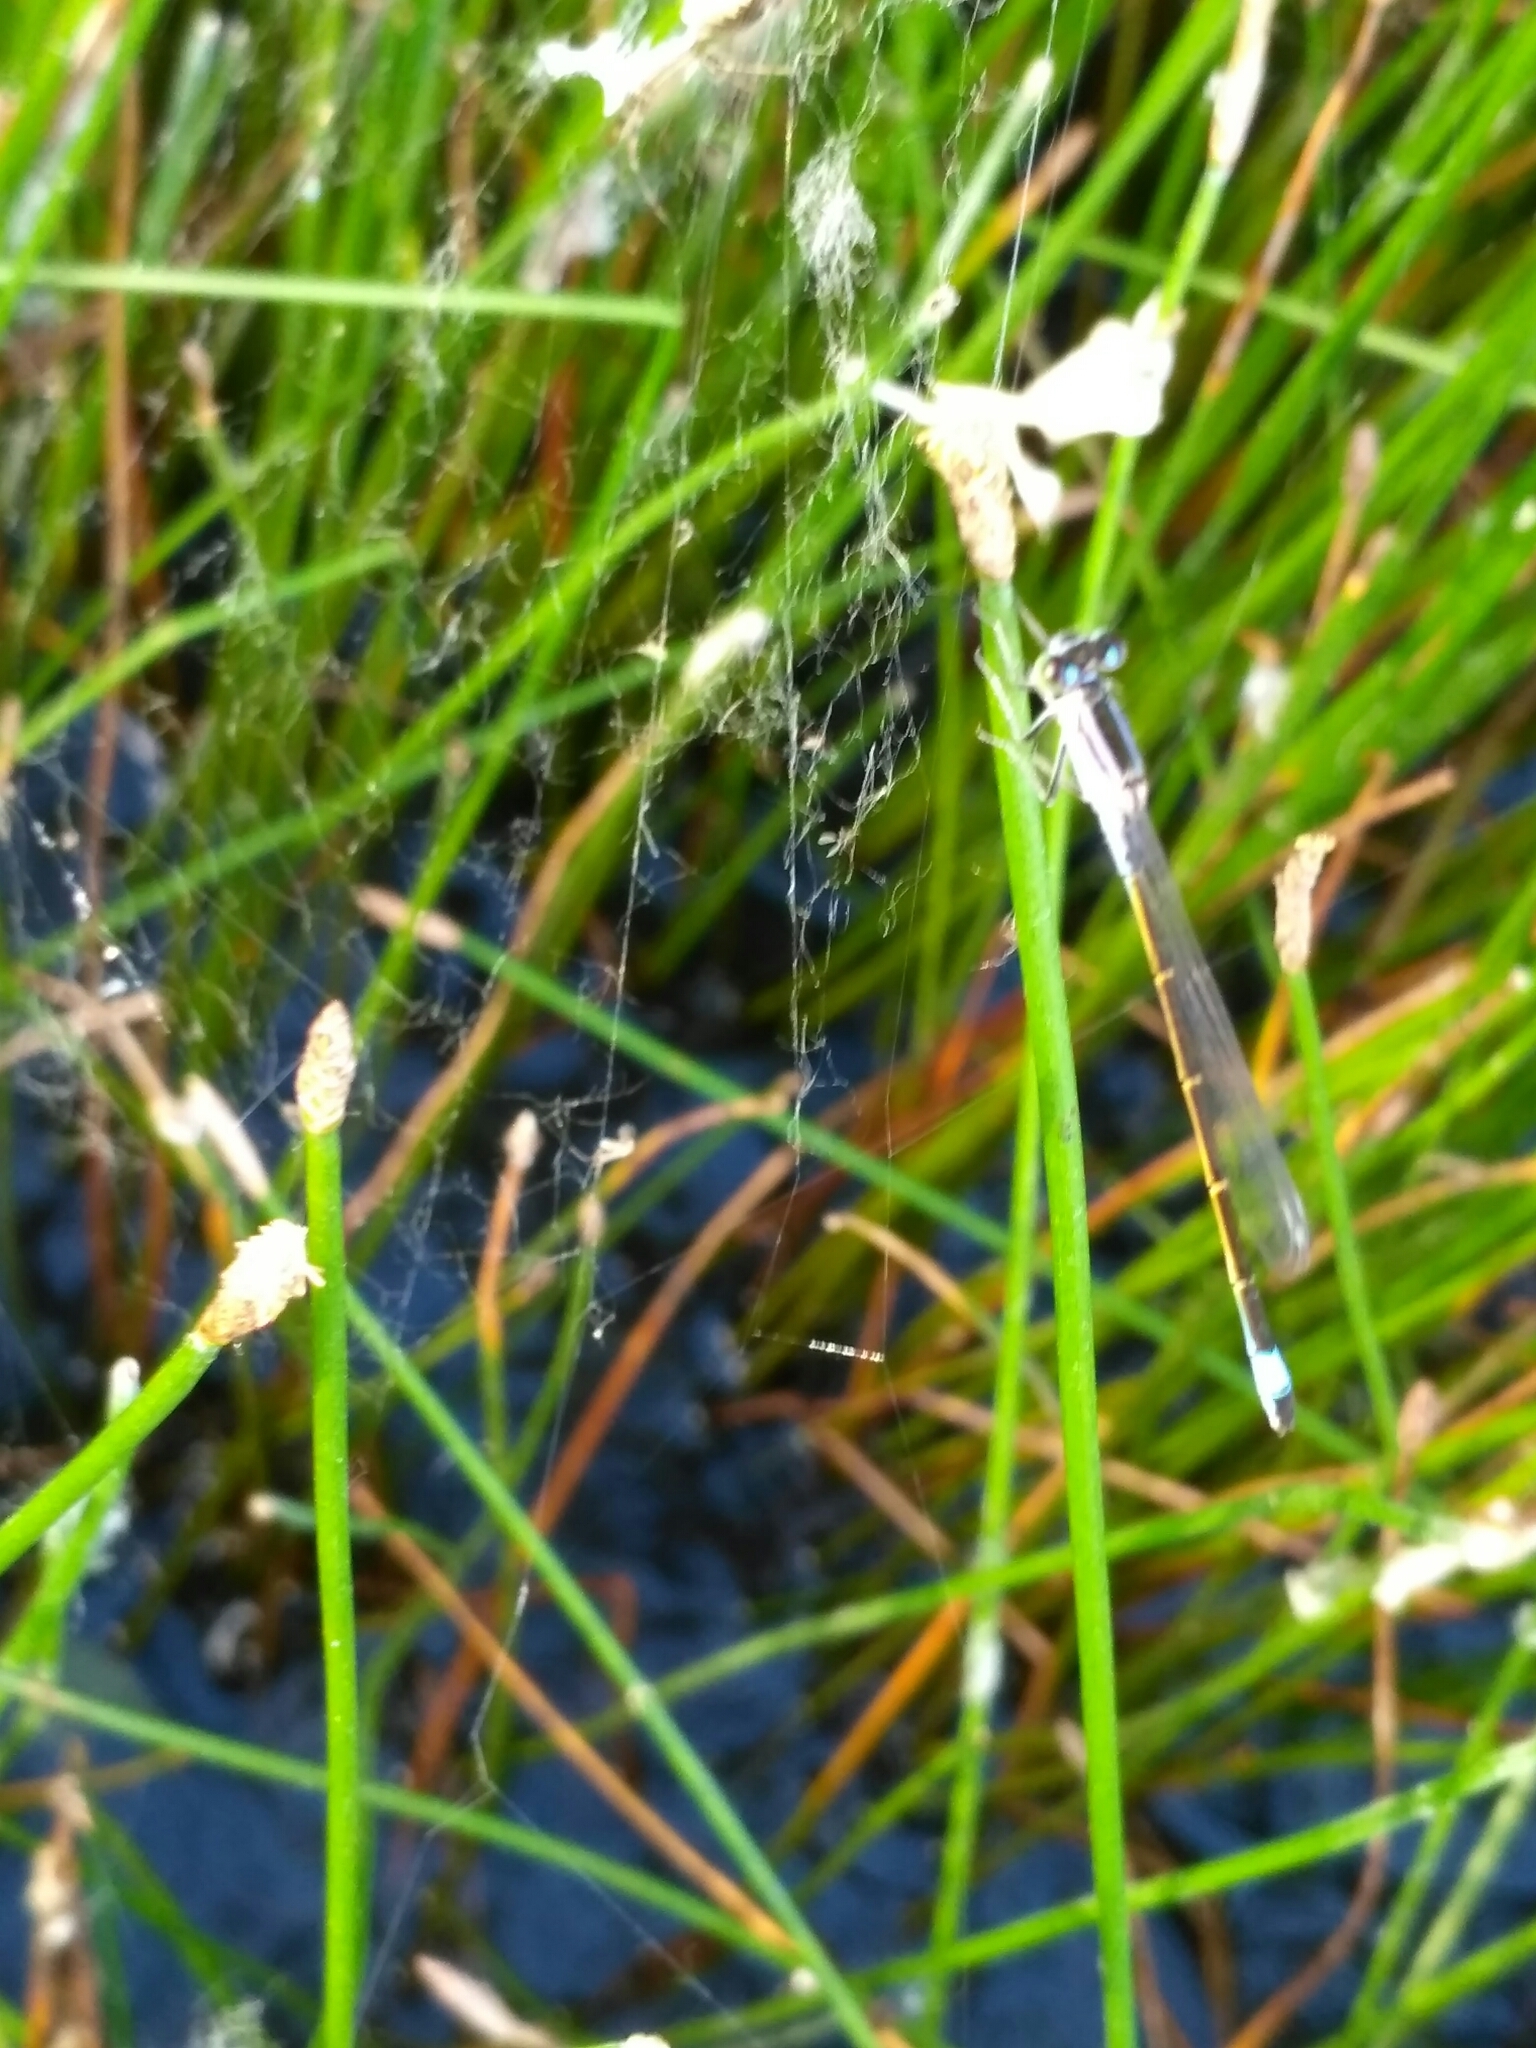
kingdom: Animalia
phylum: Arthropoda
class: Insecta
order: Odonata
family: Coenagrionidae
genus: Ischnura
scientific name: Ischnura elegans
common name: Blue-tailed damselfly
